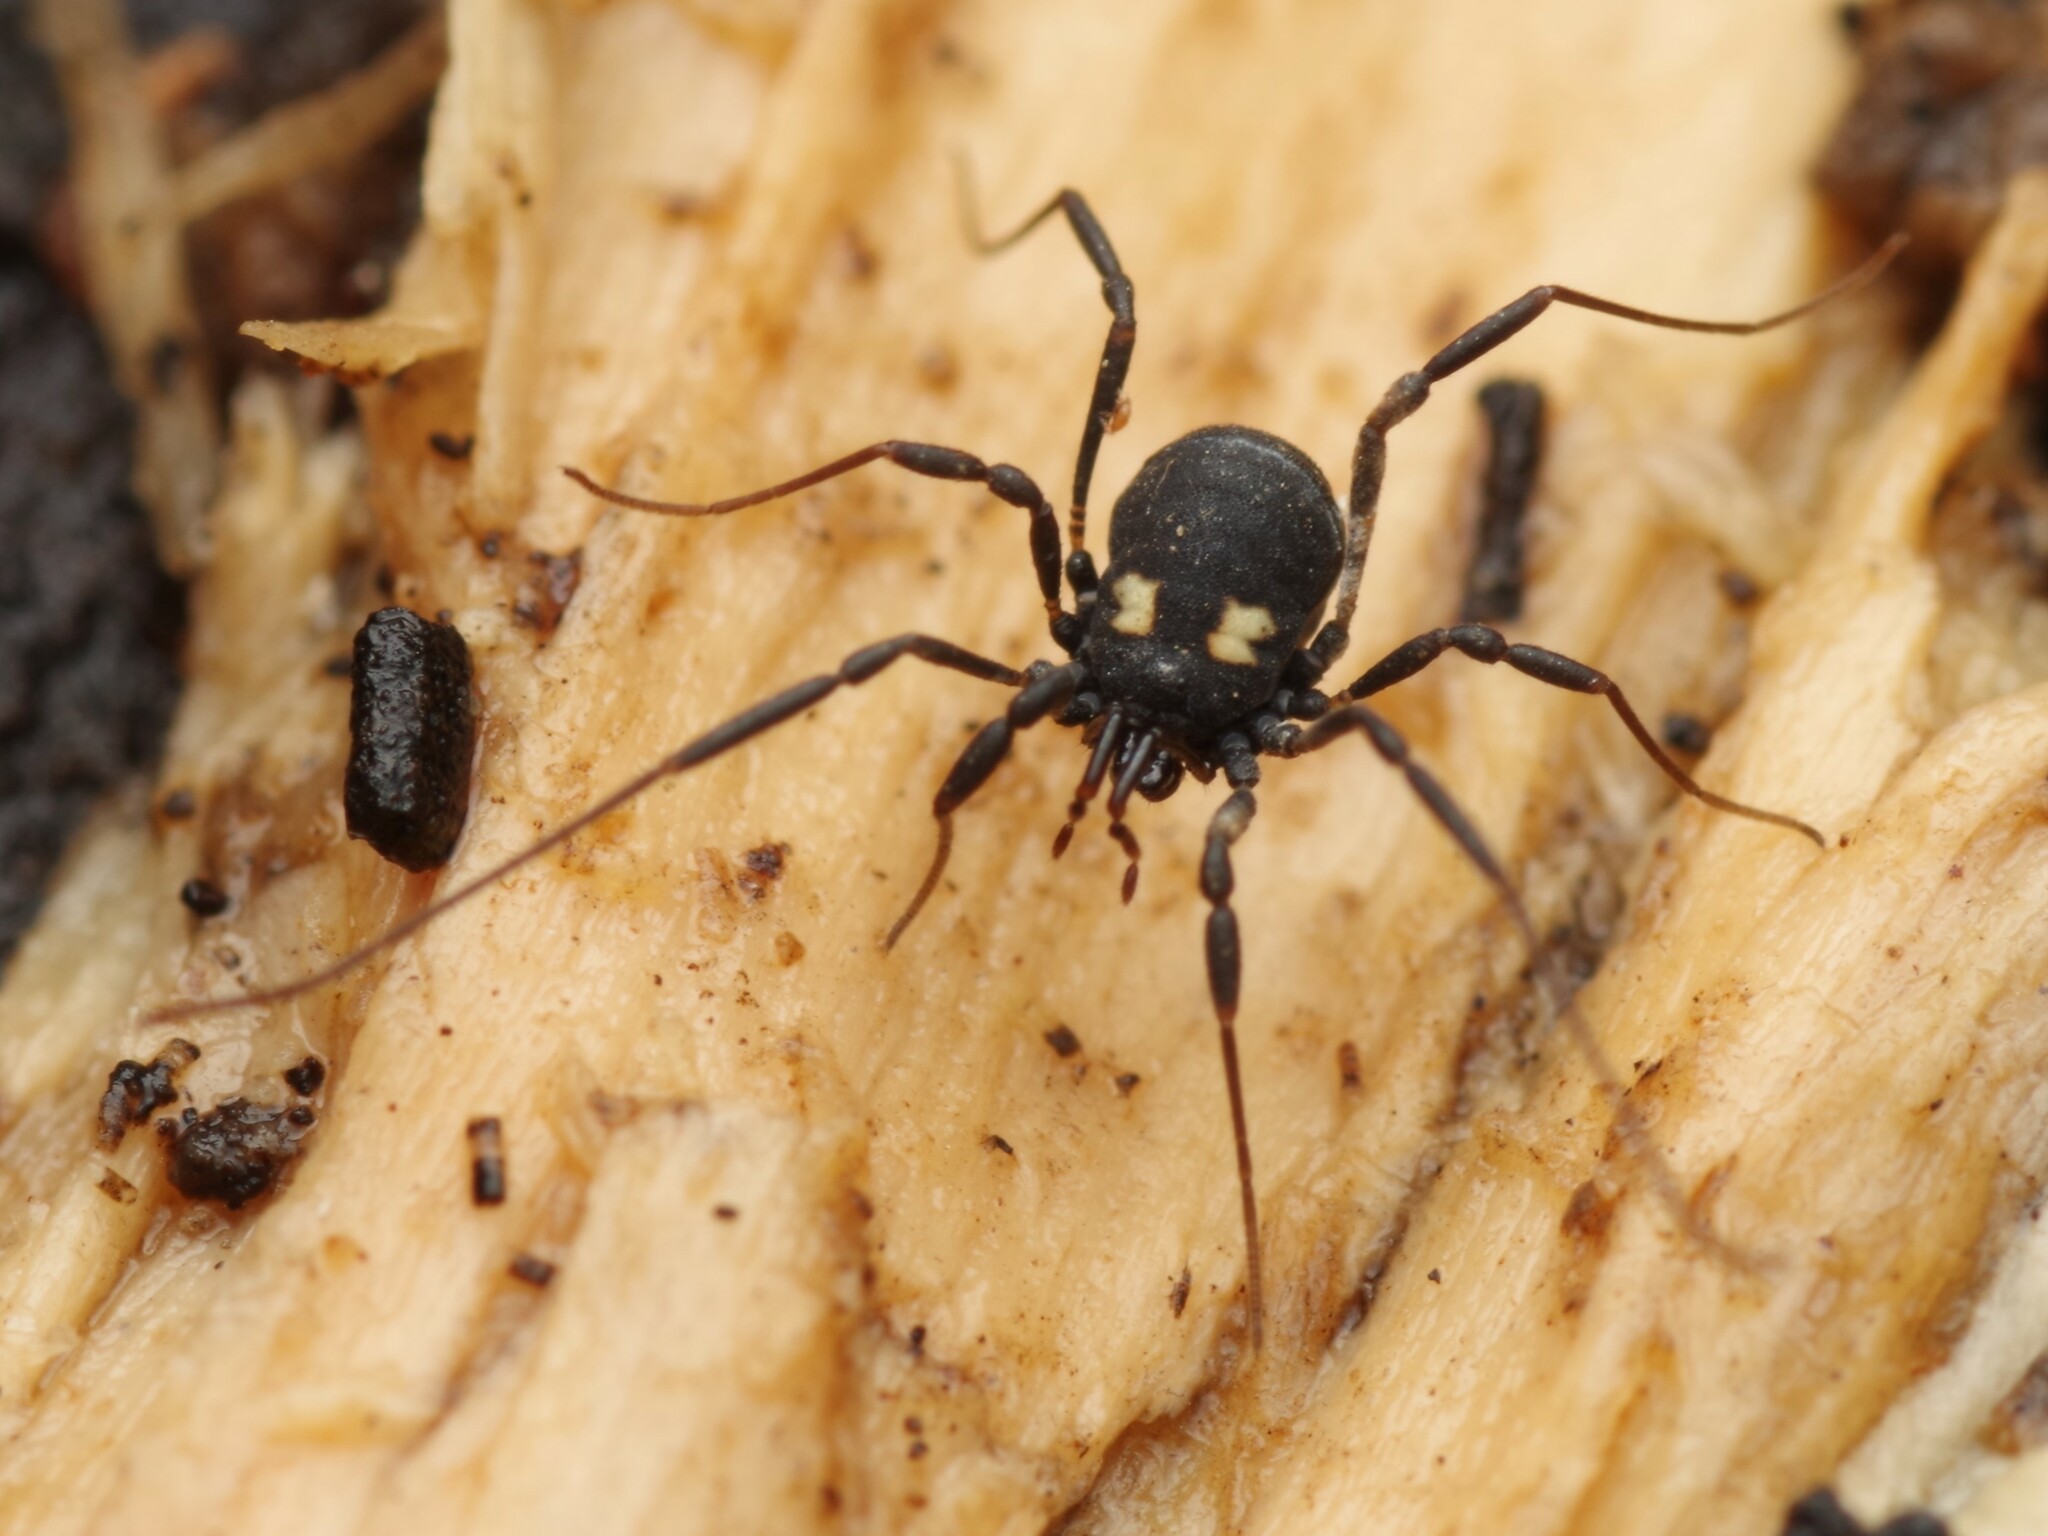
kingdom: Animalia
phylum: Arthropoda
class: Arachnida
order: Opiliones
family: Nemastomatidae
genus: Nemastoma
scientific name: Nemastoma bimaculatum
